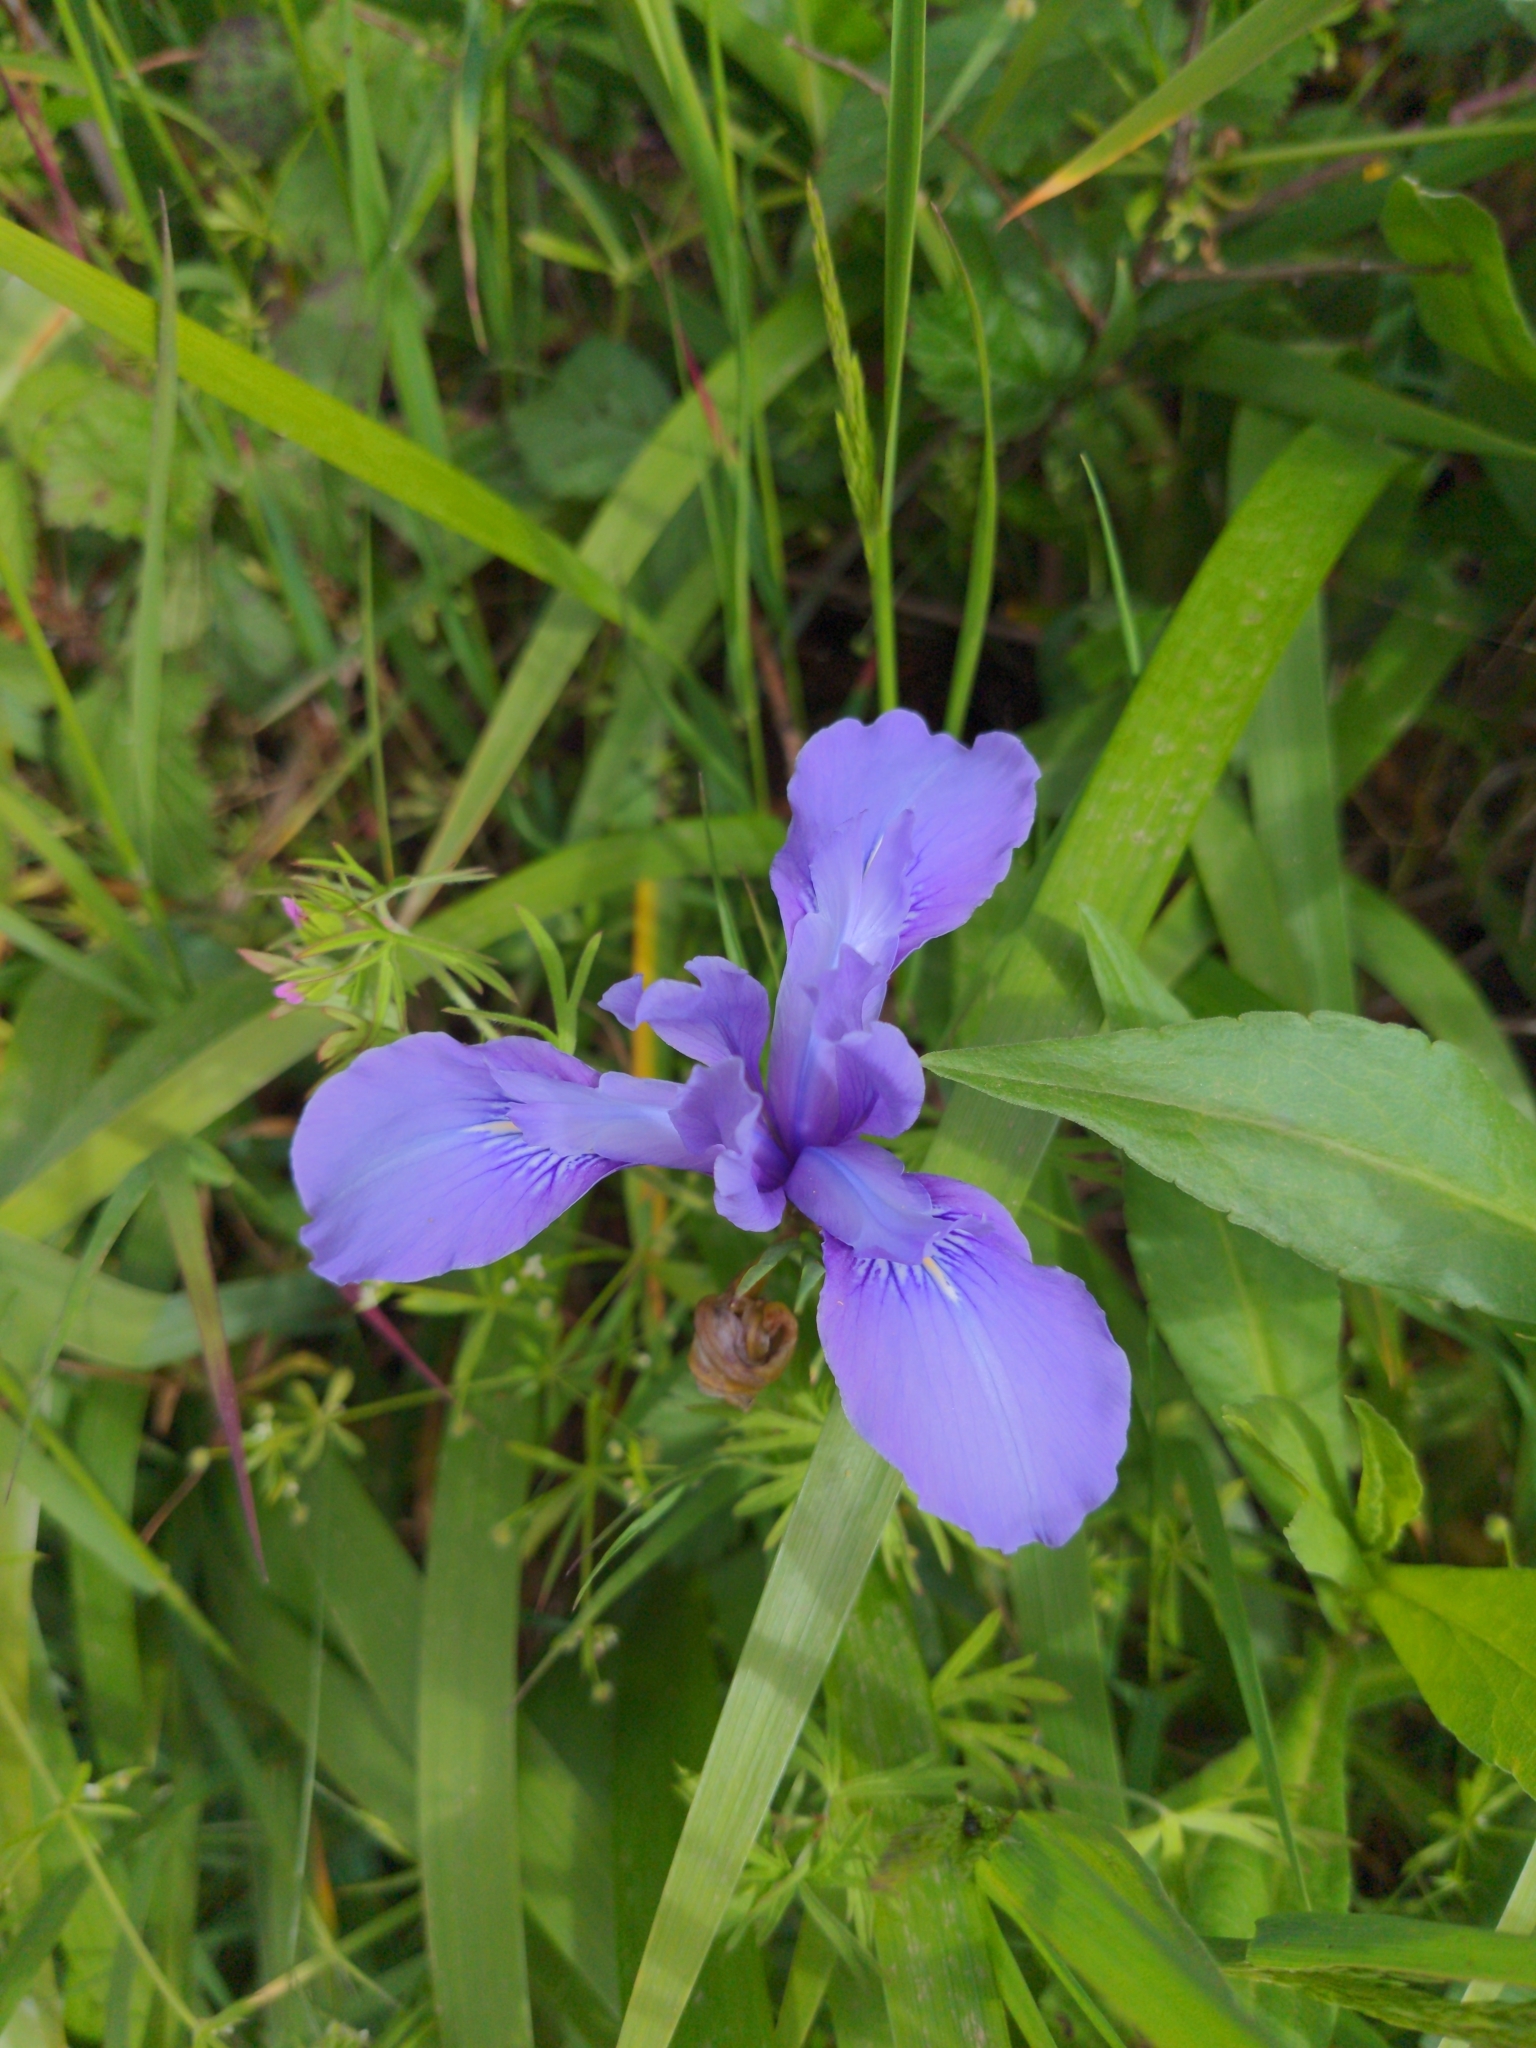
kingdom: Plantae
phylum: Tracheophyta
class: Liliopsida
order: Asparagales
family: Iridaceae
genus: Iris
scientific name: Iris douglasiana
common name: Marin iris
